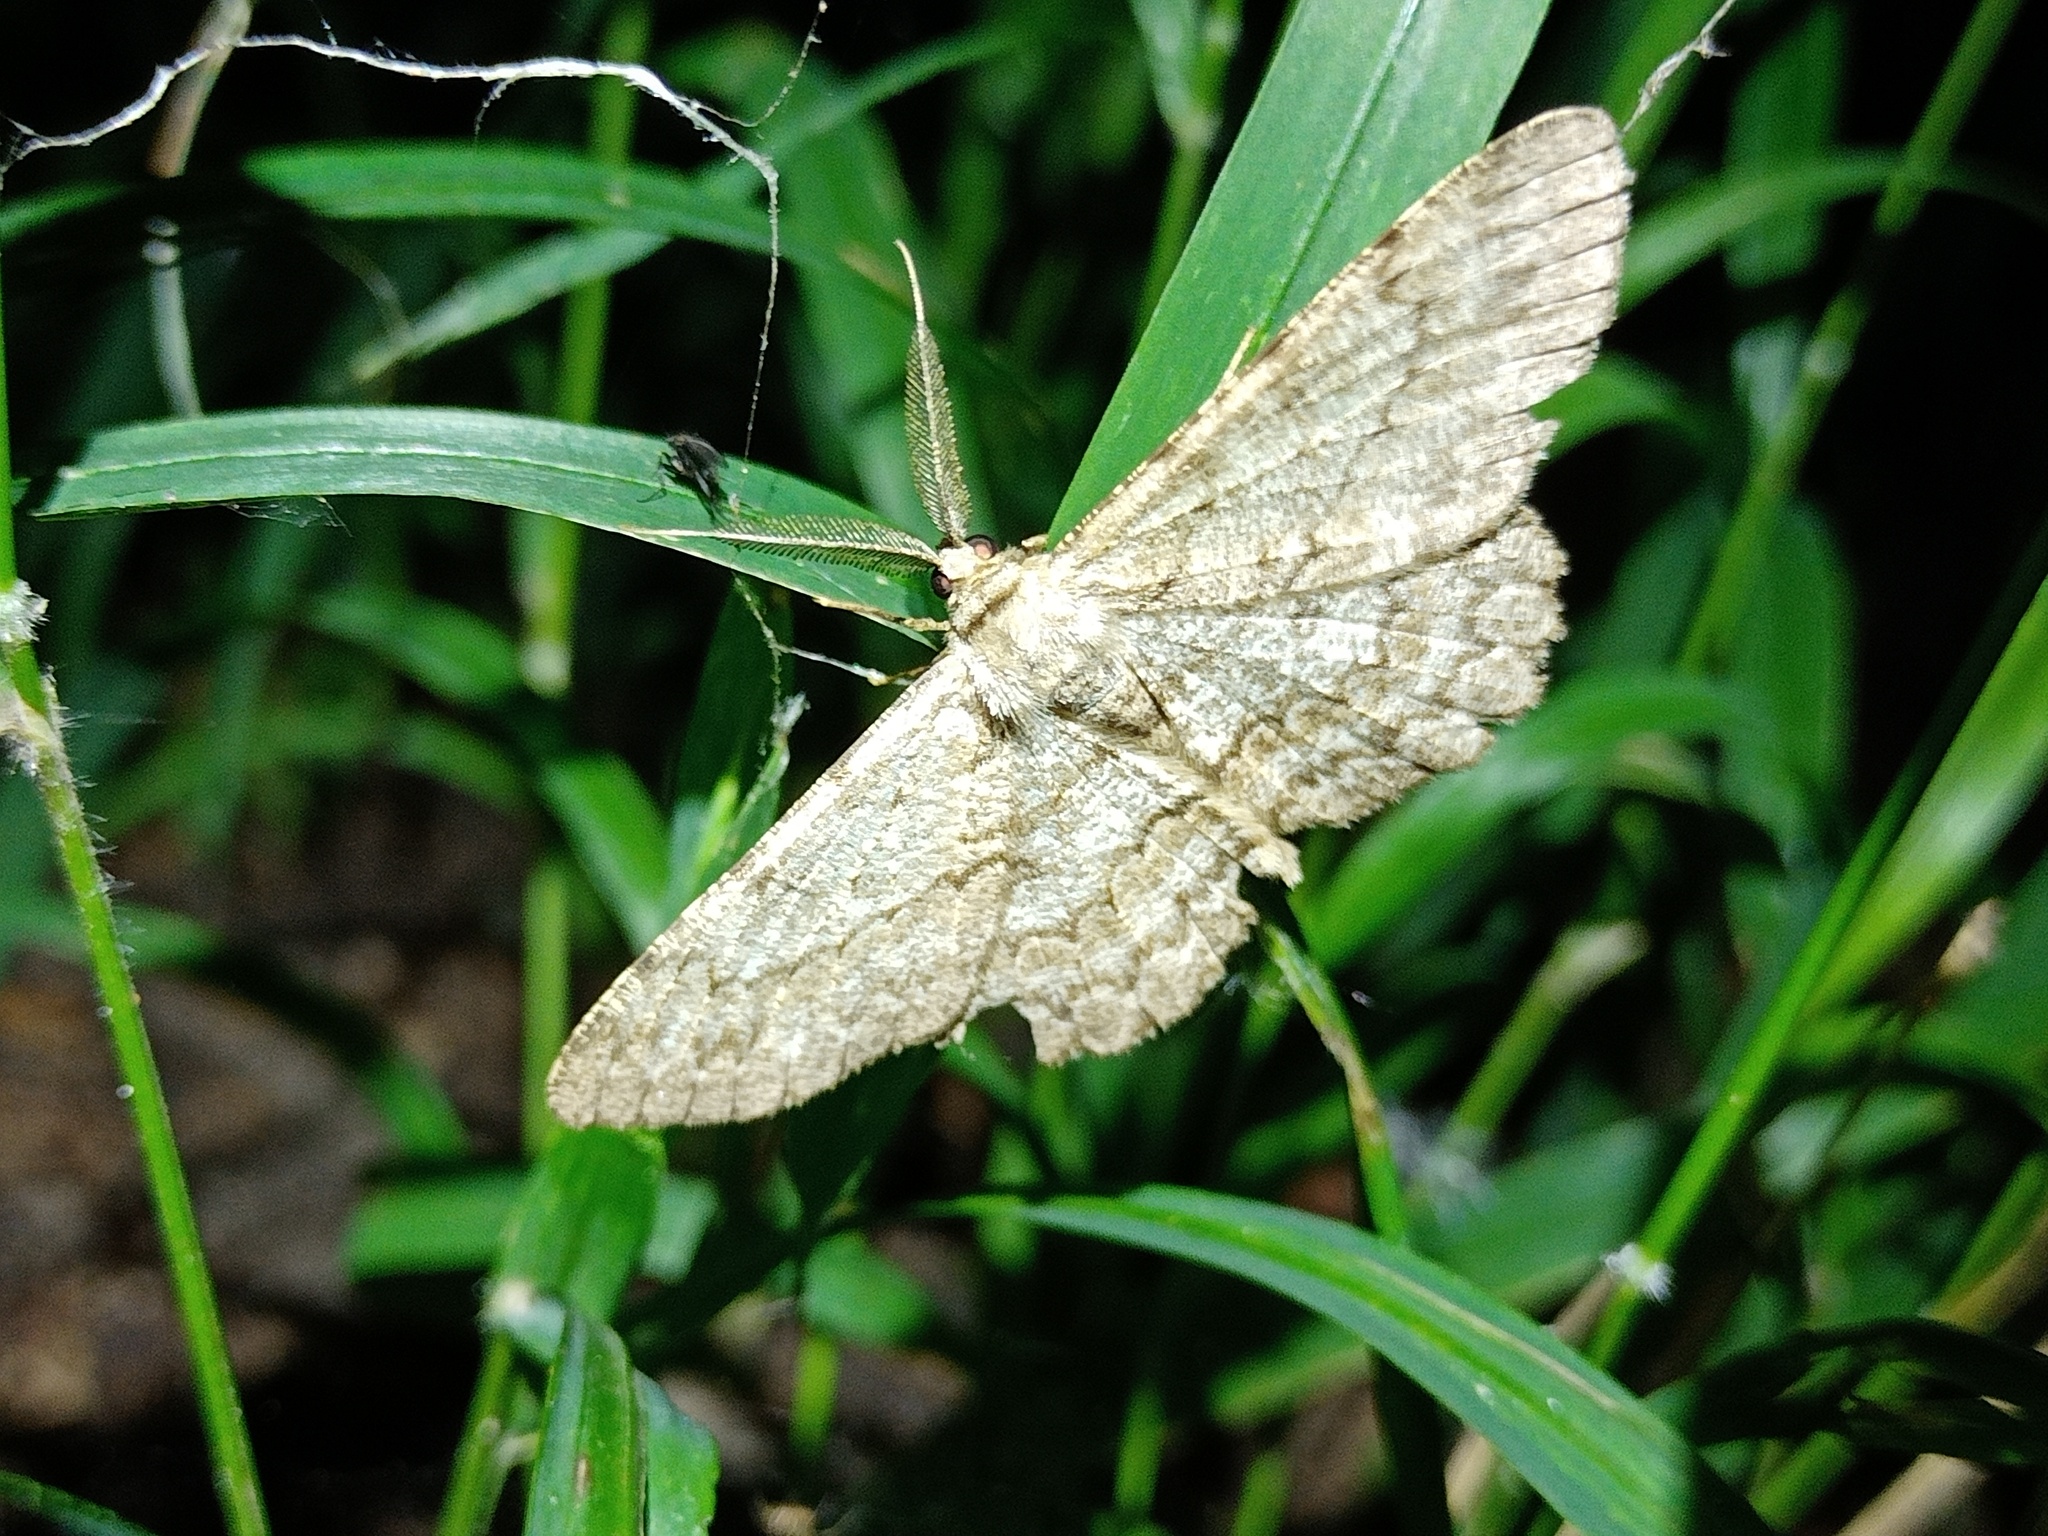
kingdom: Animalia
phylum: Arthropoda
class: Insecta
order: Lepidoptera
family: Geometridae
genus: Hypomecis
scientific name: Hypomecis punctinalis
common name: Pale oak beauty
